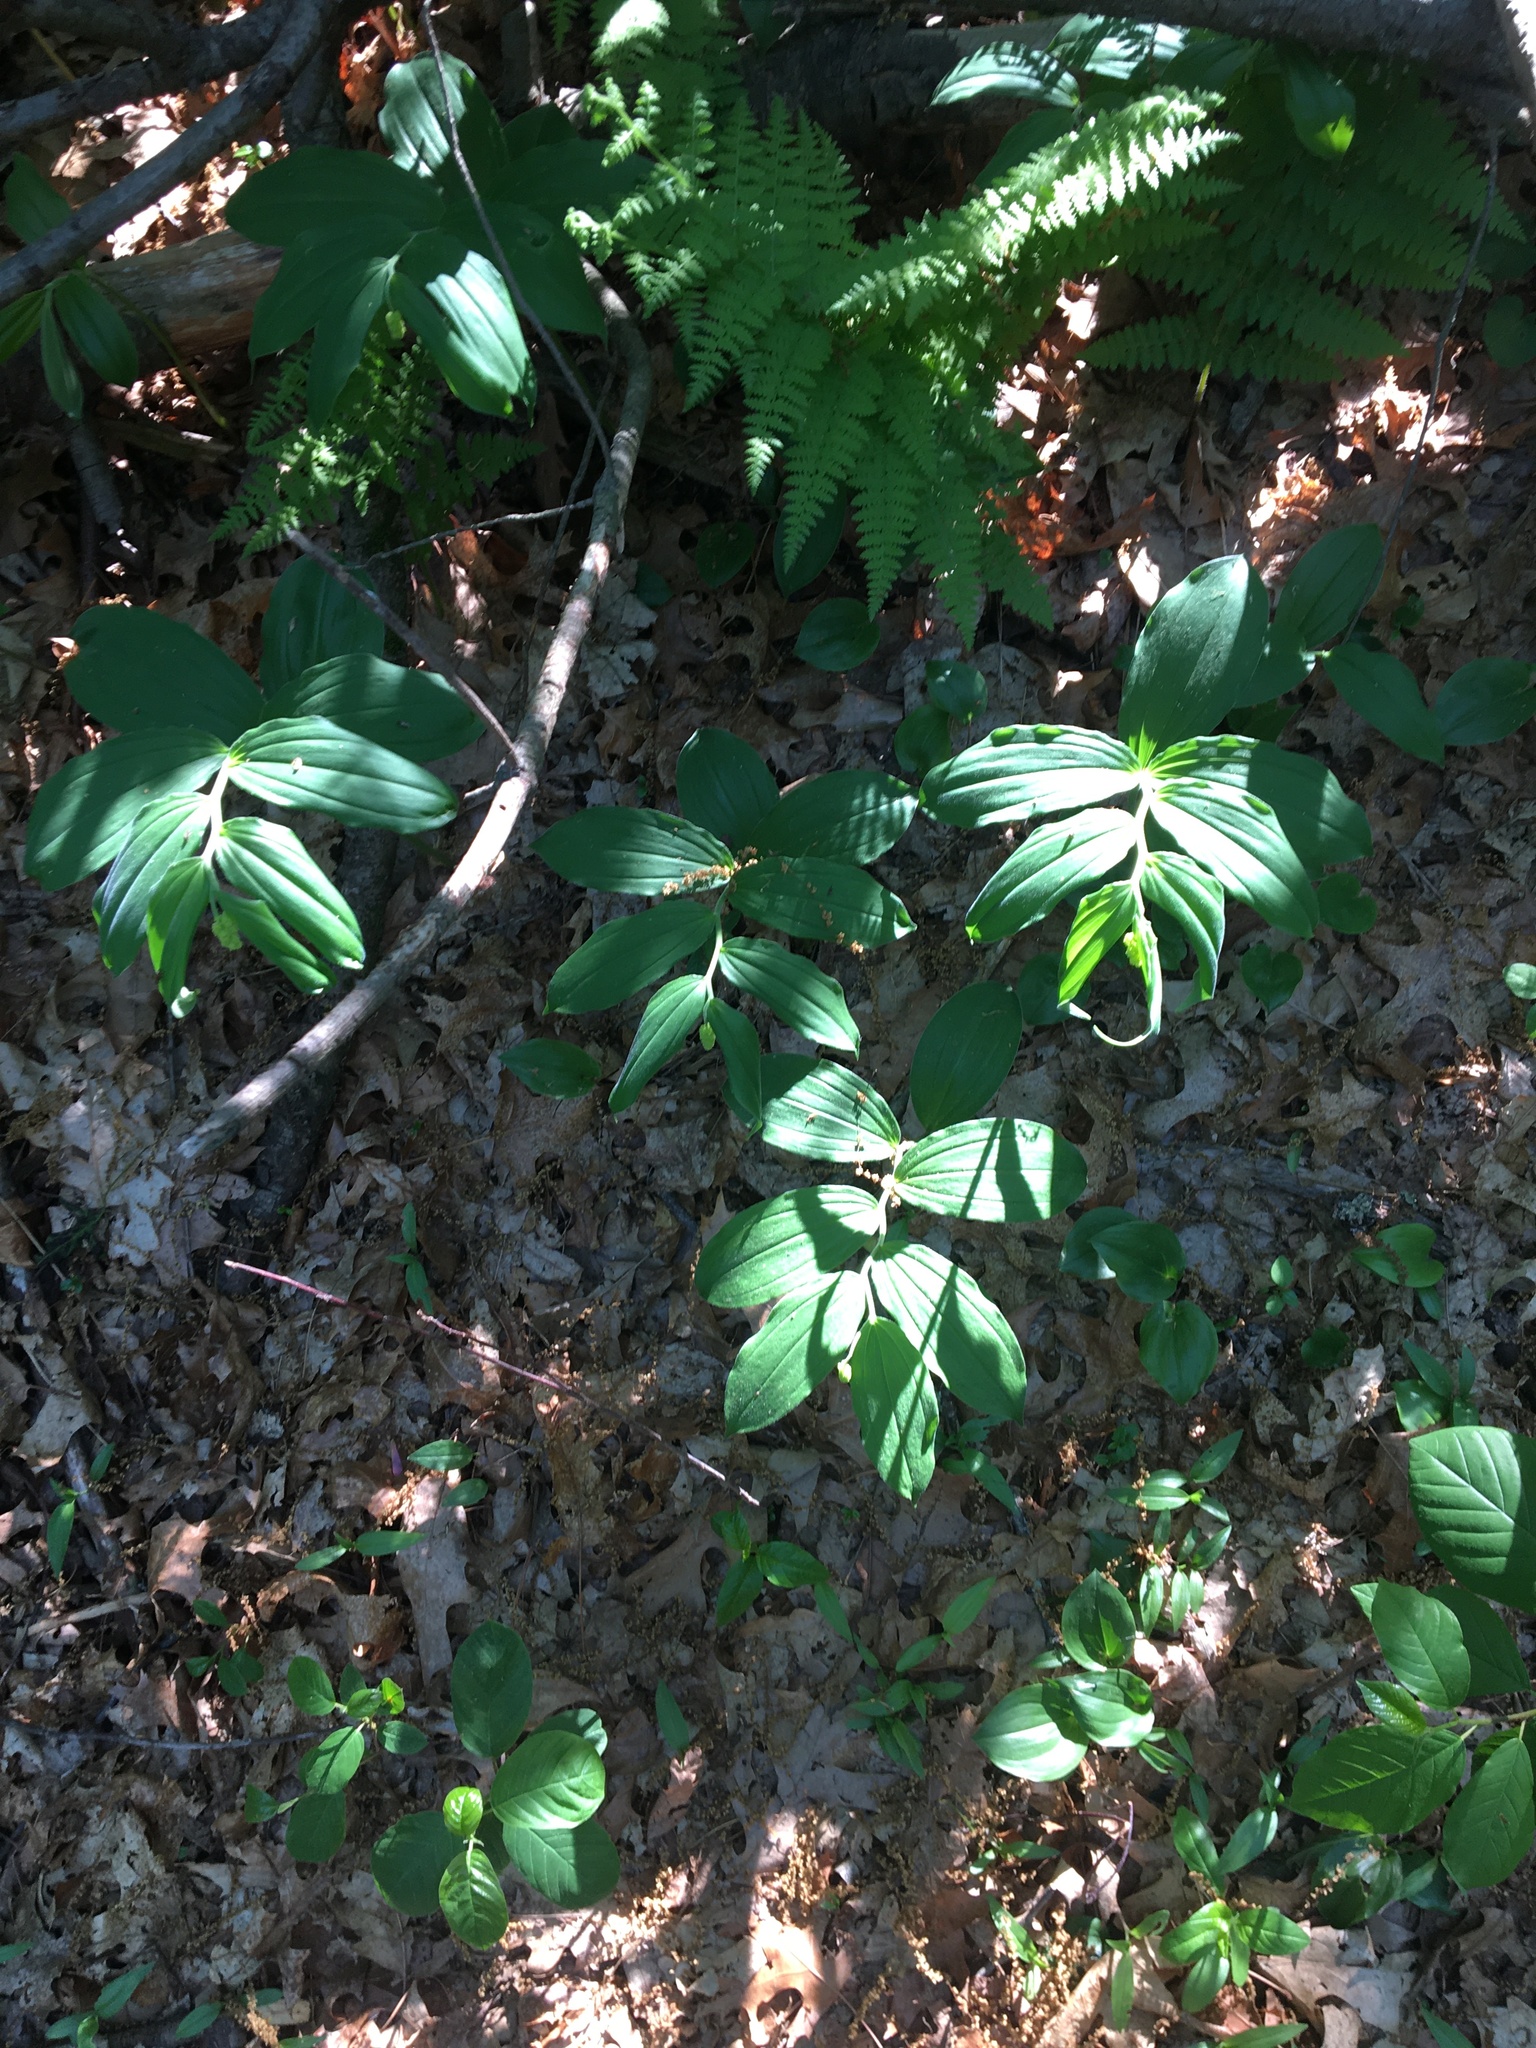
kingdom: Plantae
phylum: Tracheophyta
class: Liliopsida
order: Asparagales
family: Asparagaceae
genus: Maianthemum
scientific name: Maianthemum racemosum
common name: False spikenard
